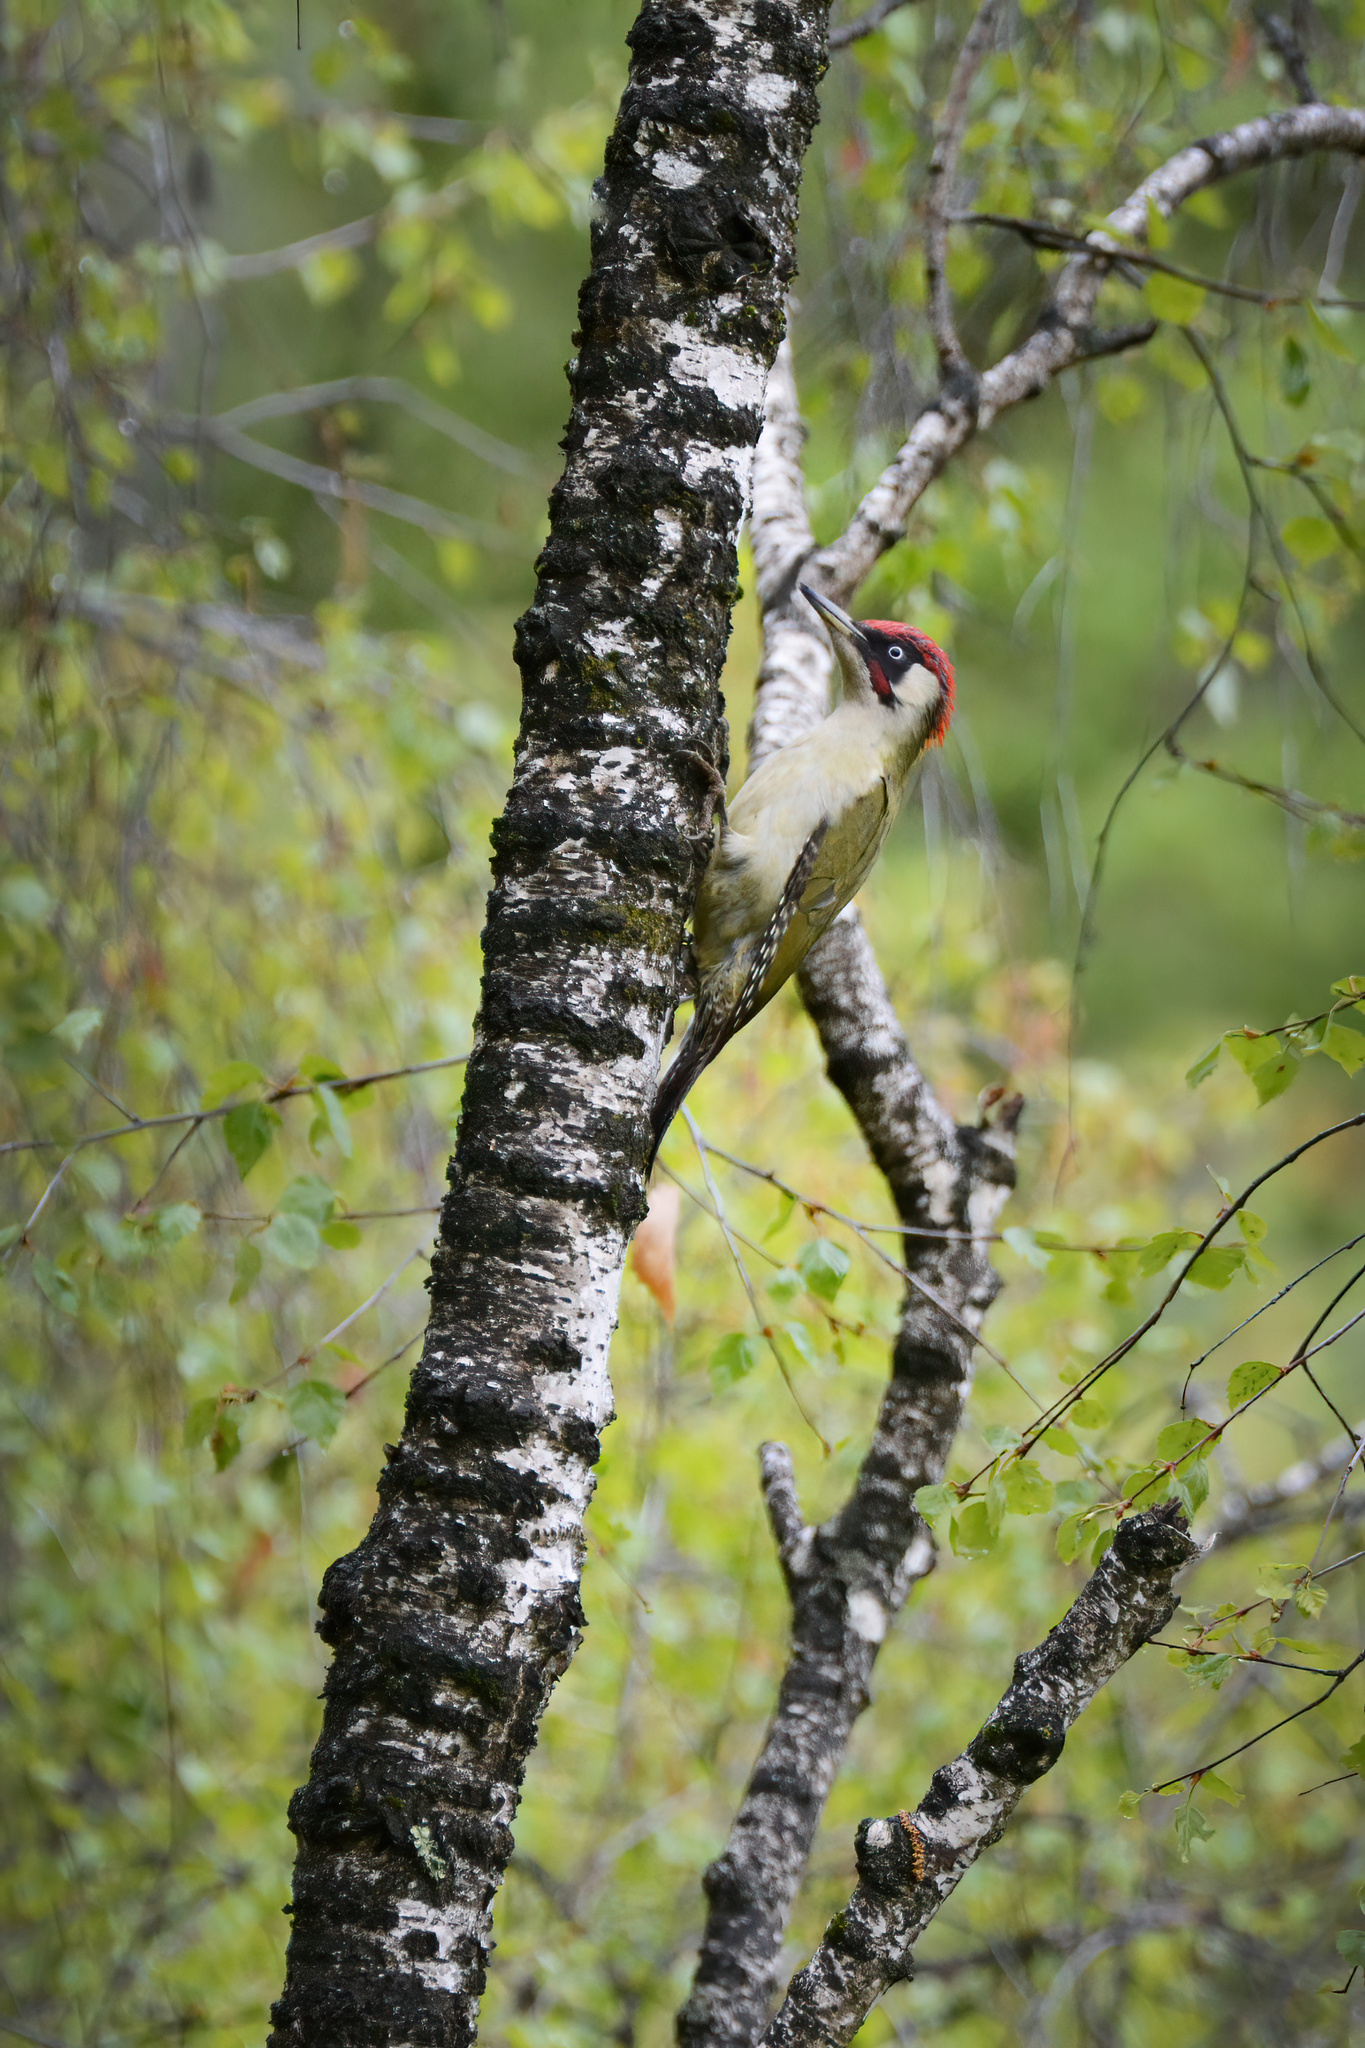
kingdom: Animalia
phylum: Chordata
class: Aves
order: Piciformes
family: Picidae
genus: Picus
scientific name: Picus viridis
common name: European green woodpecker
